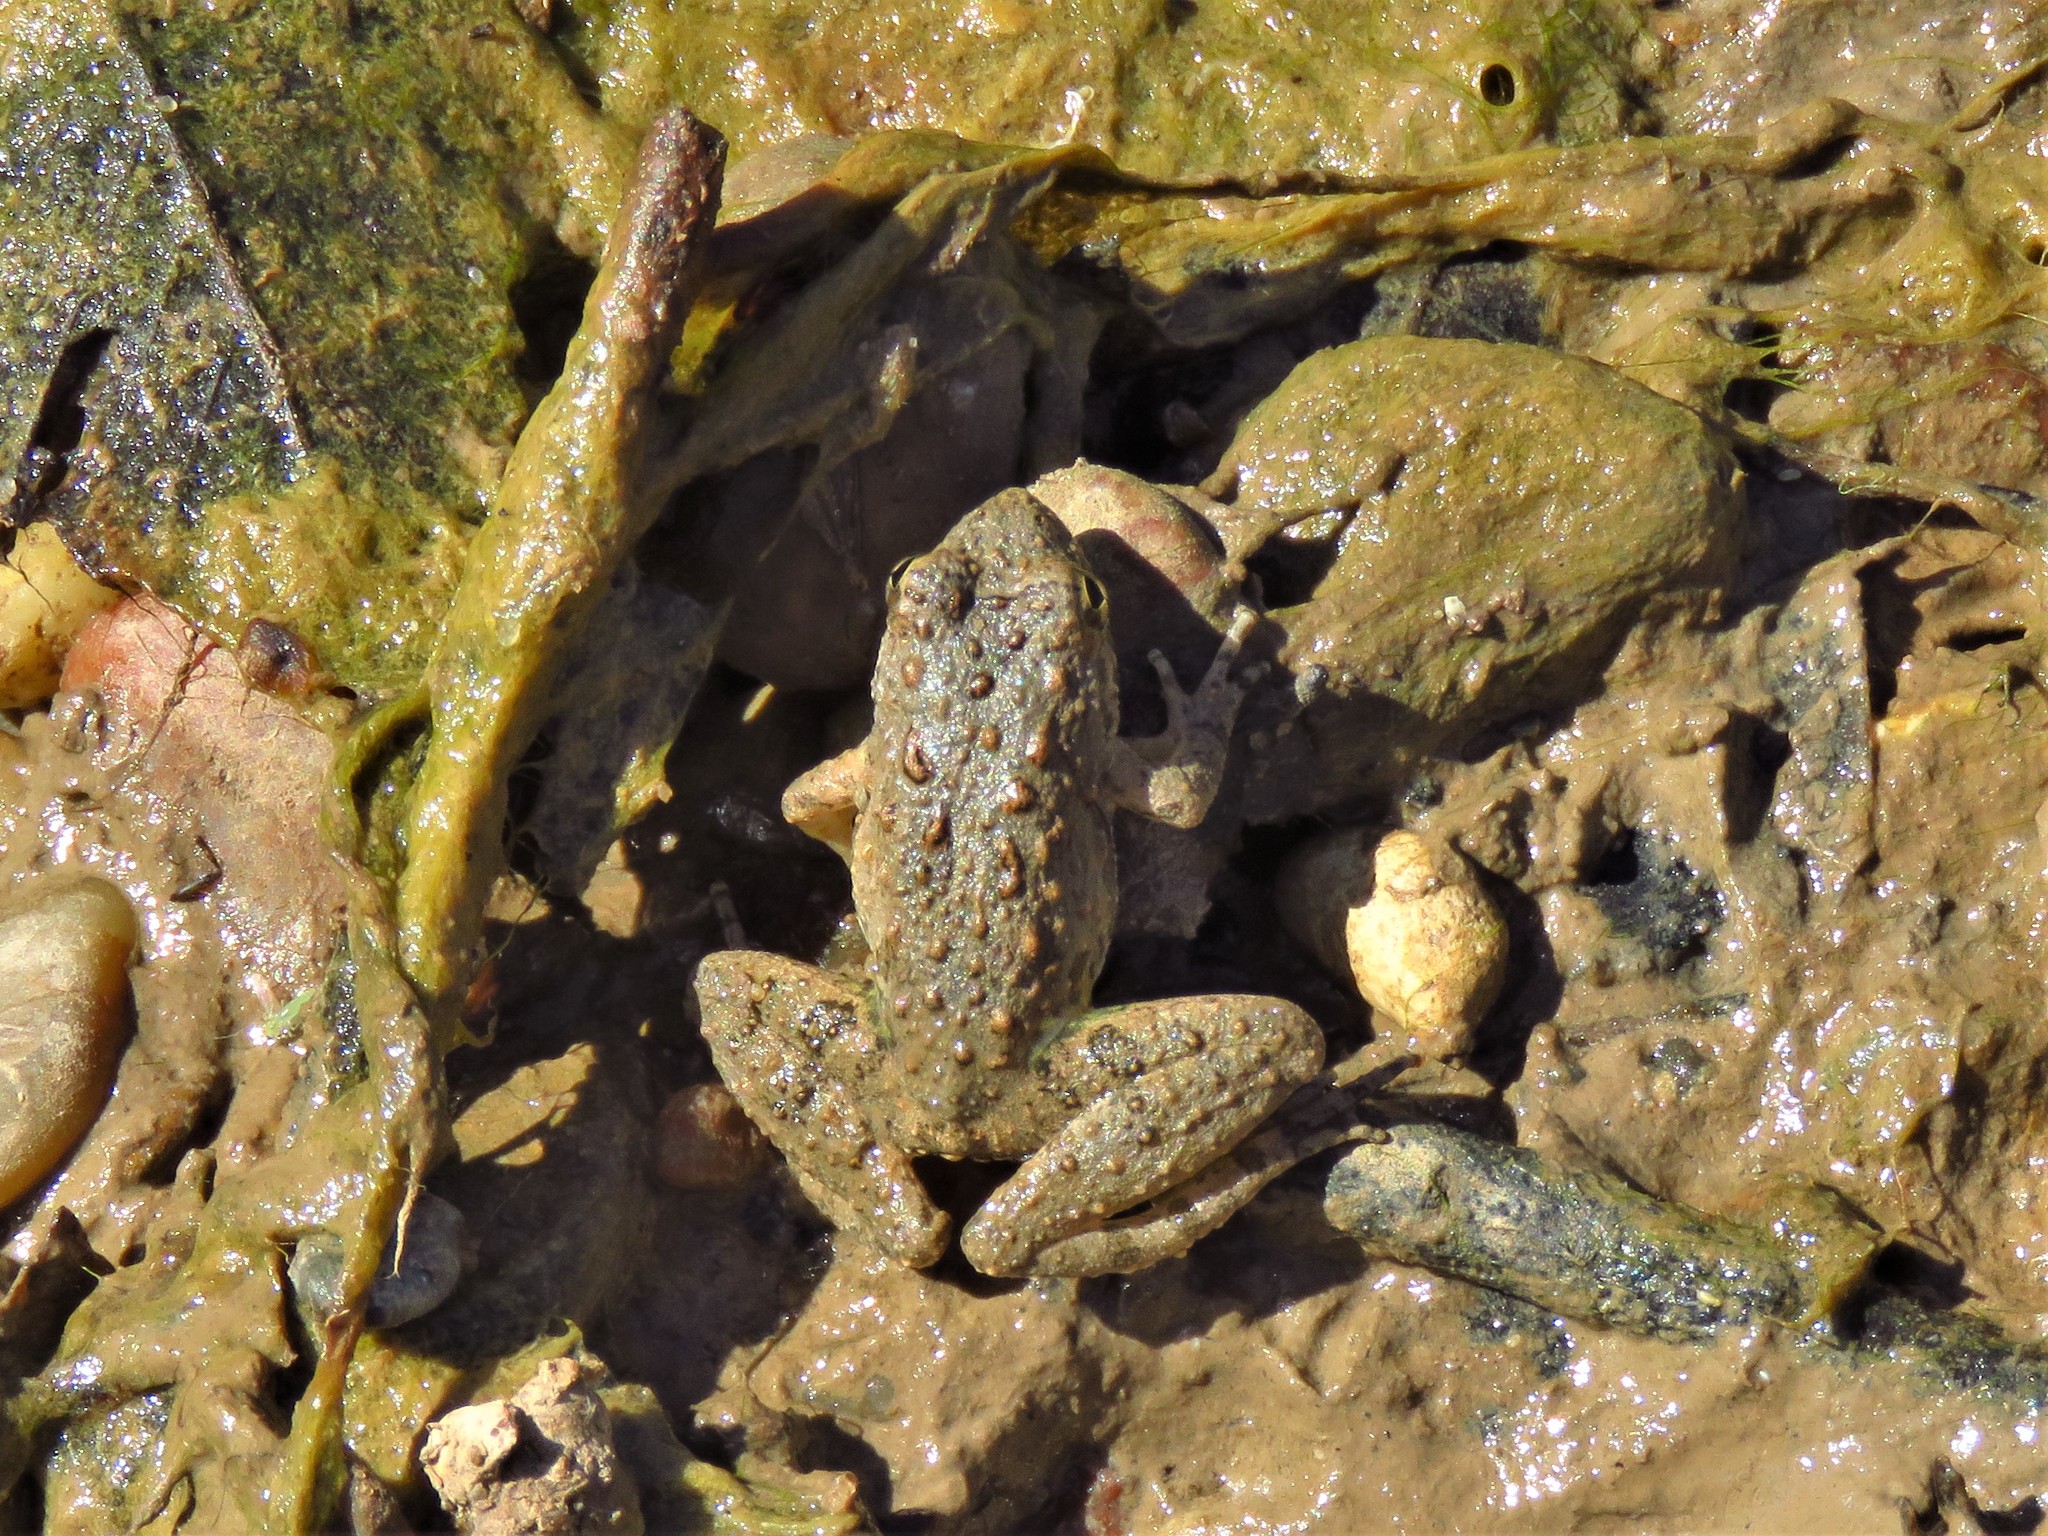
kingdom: Animalia
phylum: Chordata
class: Amphibia
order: Anura
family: Hylidae
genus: Acris
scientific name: Acris blanchardi
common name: Blanchard's cricket frog
